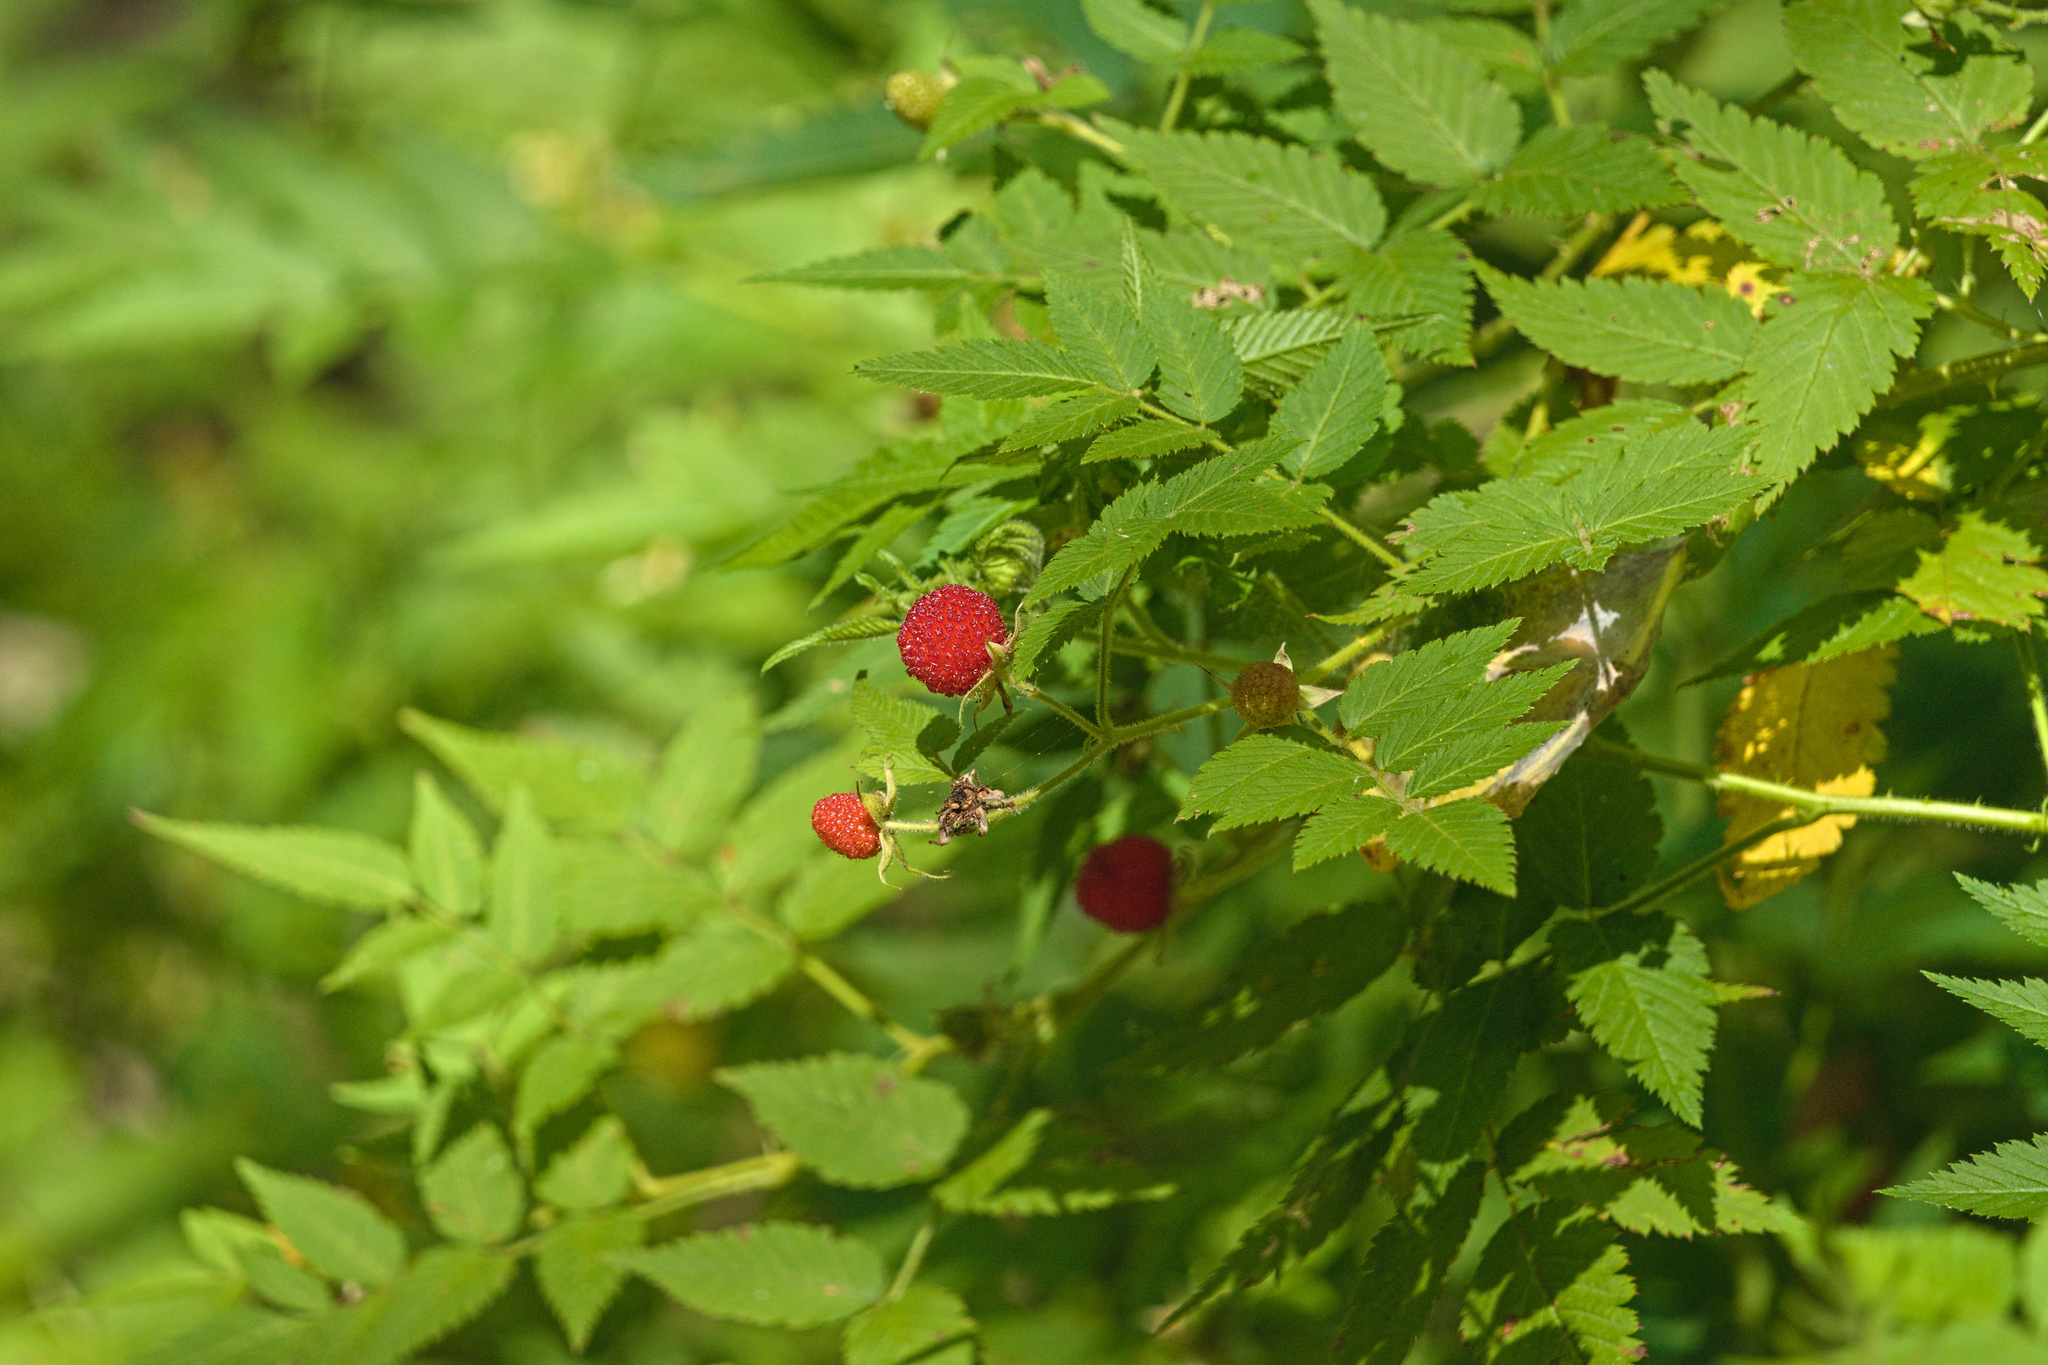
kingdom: Plantae
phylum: Tracheophyta
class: Magnoliopsida
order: Rosales
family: Rosaceae
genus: Rubus
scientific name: Rubus rosifolius
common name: Roseleaf raspberry
